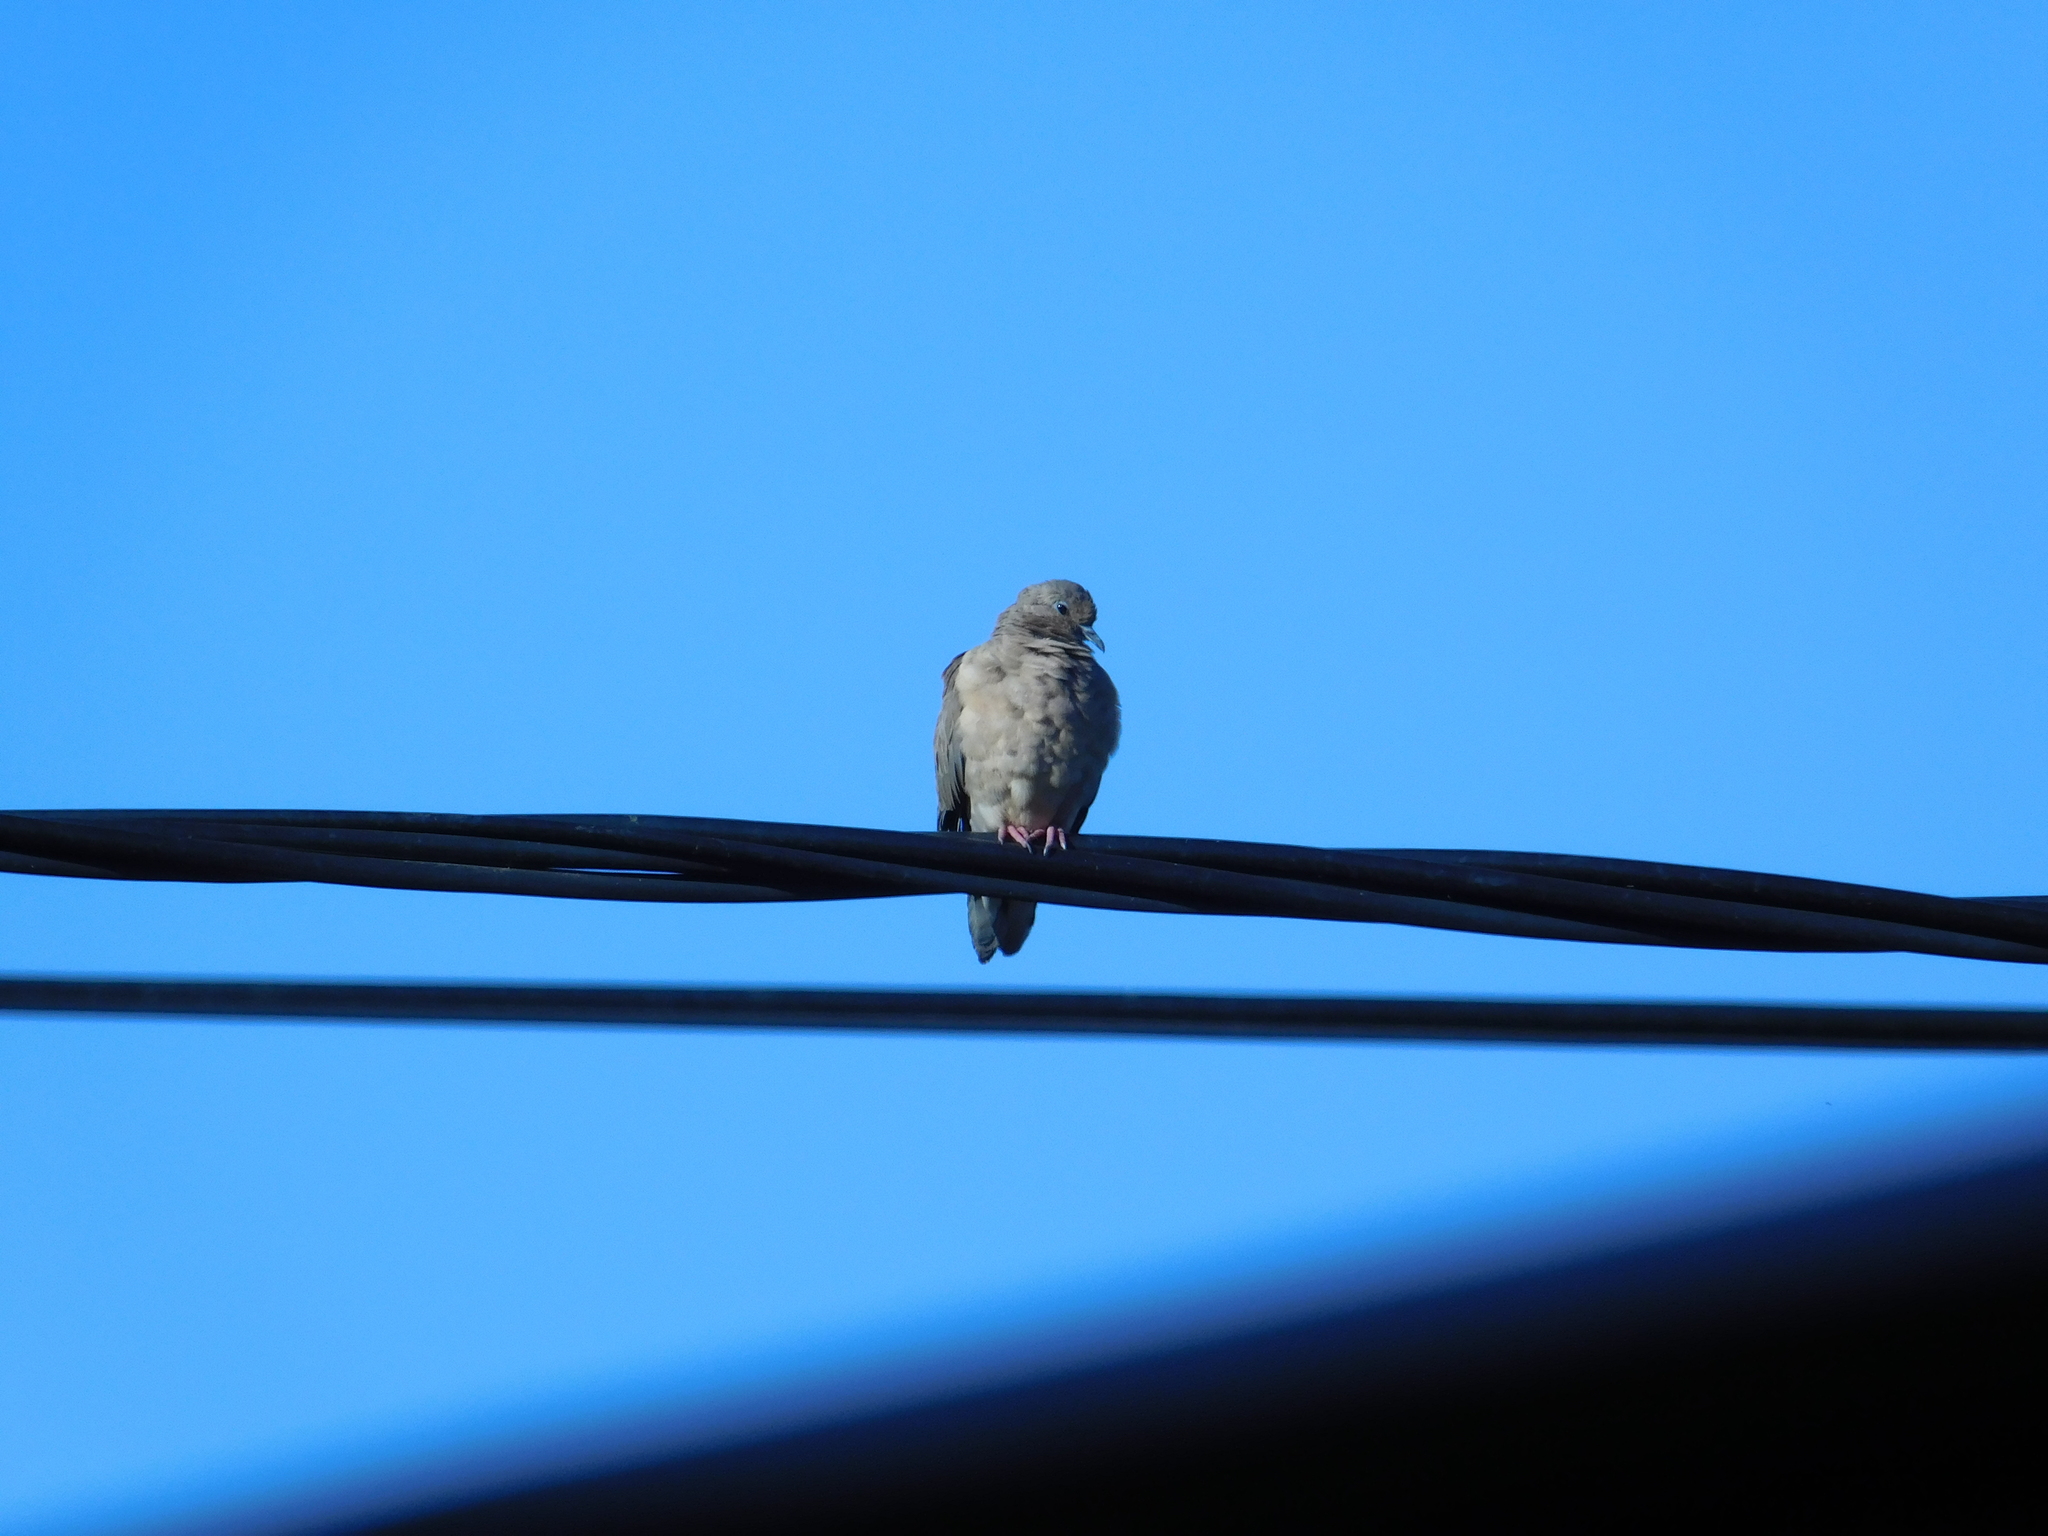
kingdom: Animalia
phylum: Chordata
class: Aves
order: Columbiformes
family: Columbidae
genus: Zenaida
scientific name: Zenaida auriculata
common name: Eared dove
